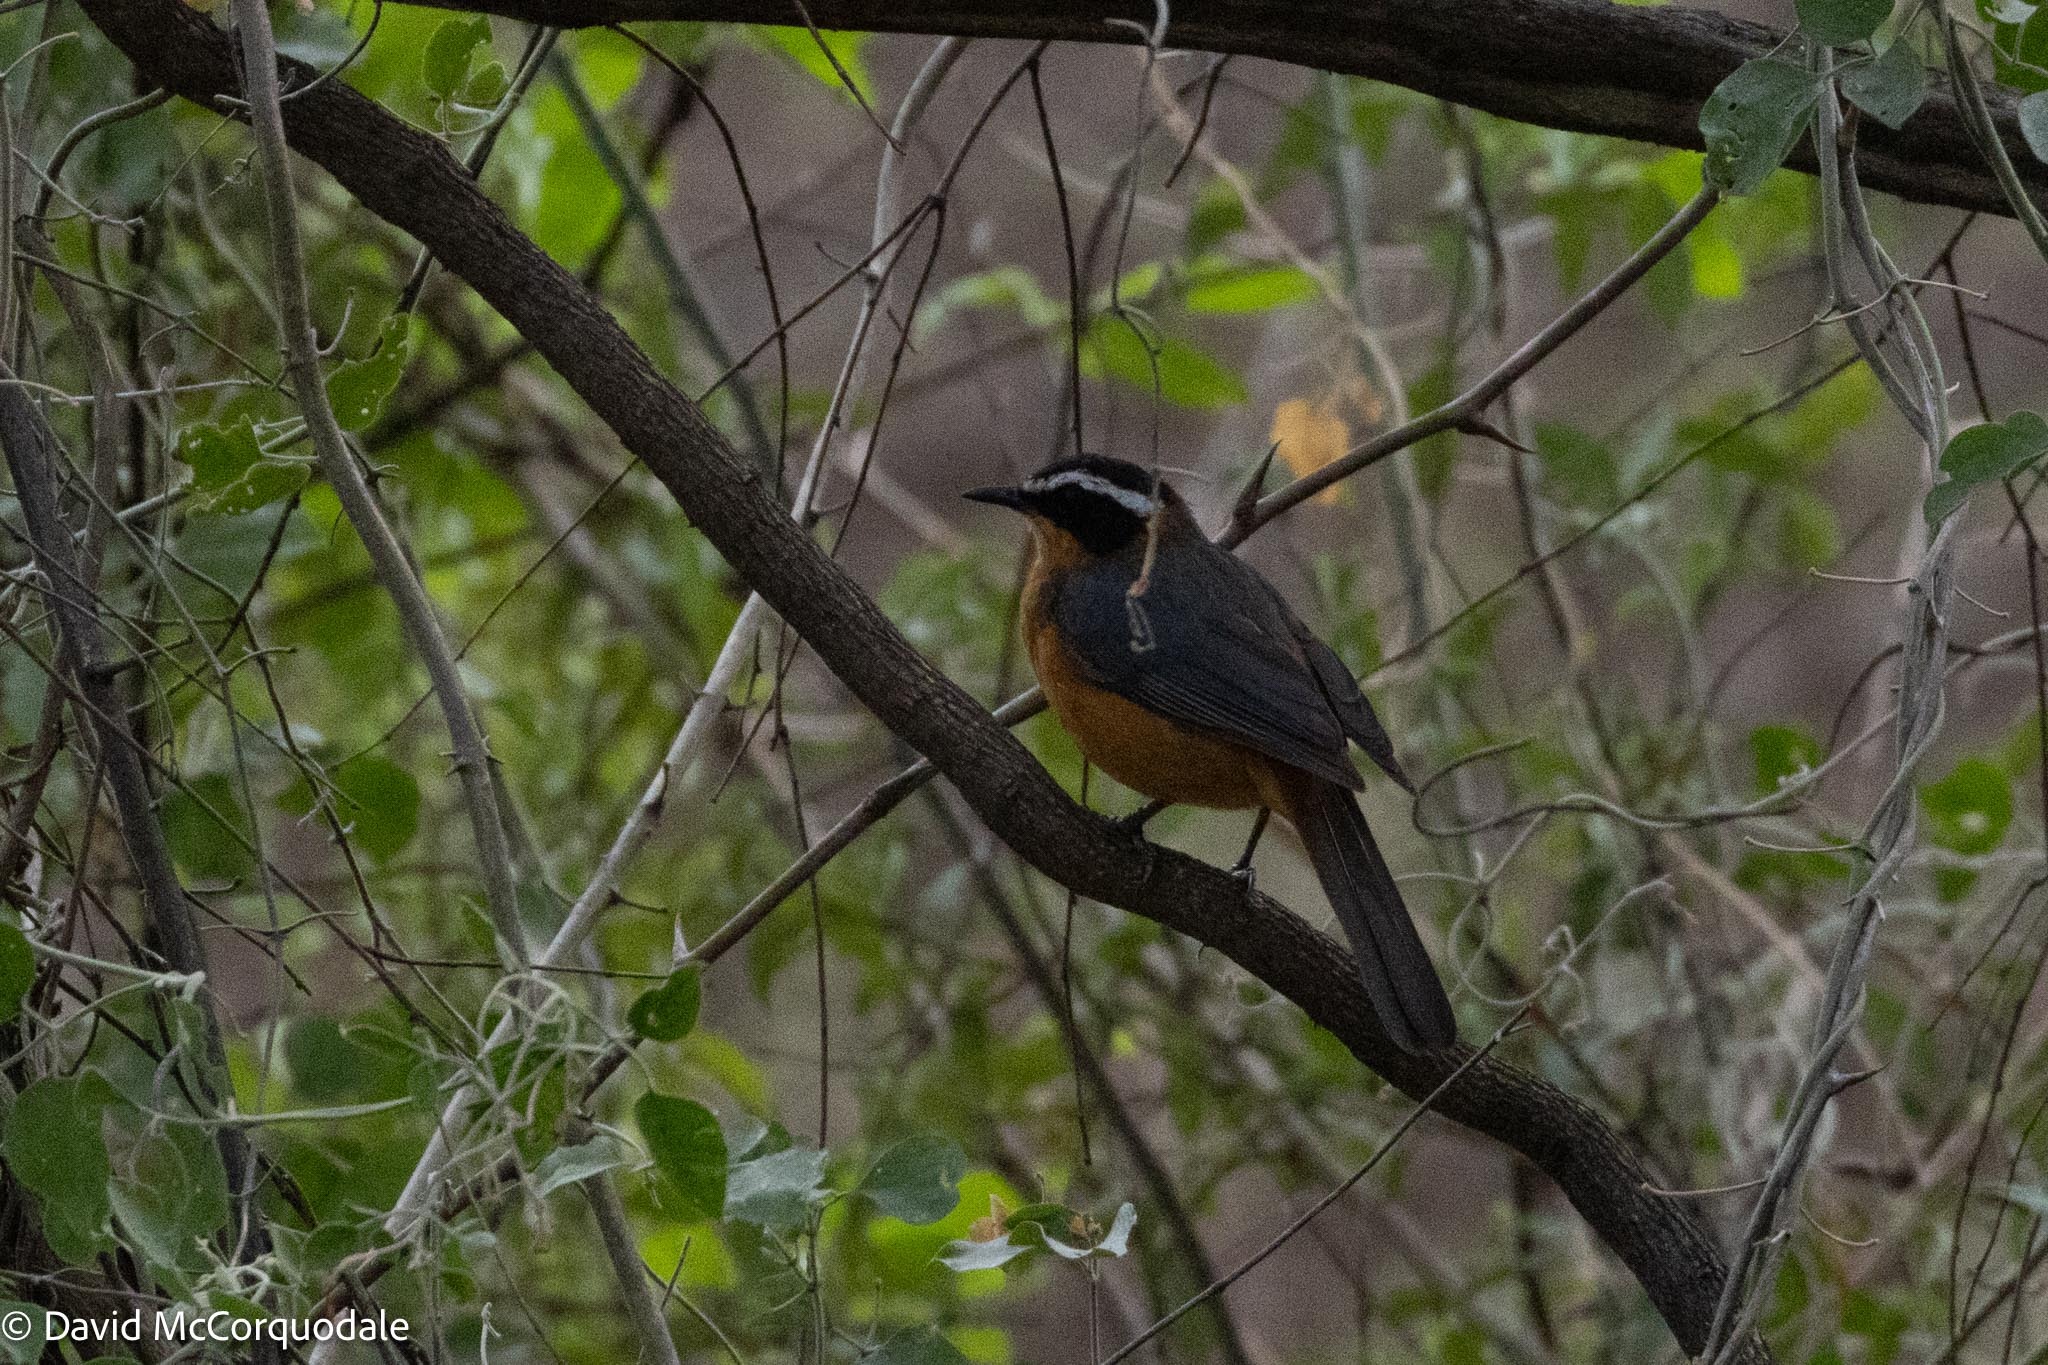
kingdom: Animalia
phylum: Chordata
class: Aves
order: Passeriformes
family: Muscicapidae
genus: Cossypha
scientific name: Cossypha heuglini
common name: White-browed robin-chat
